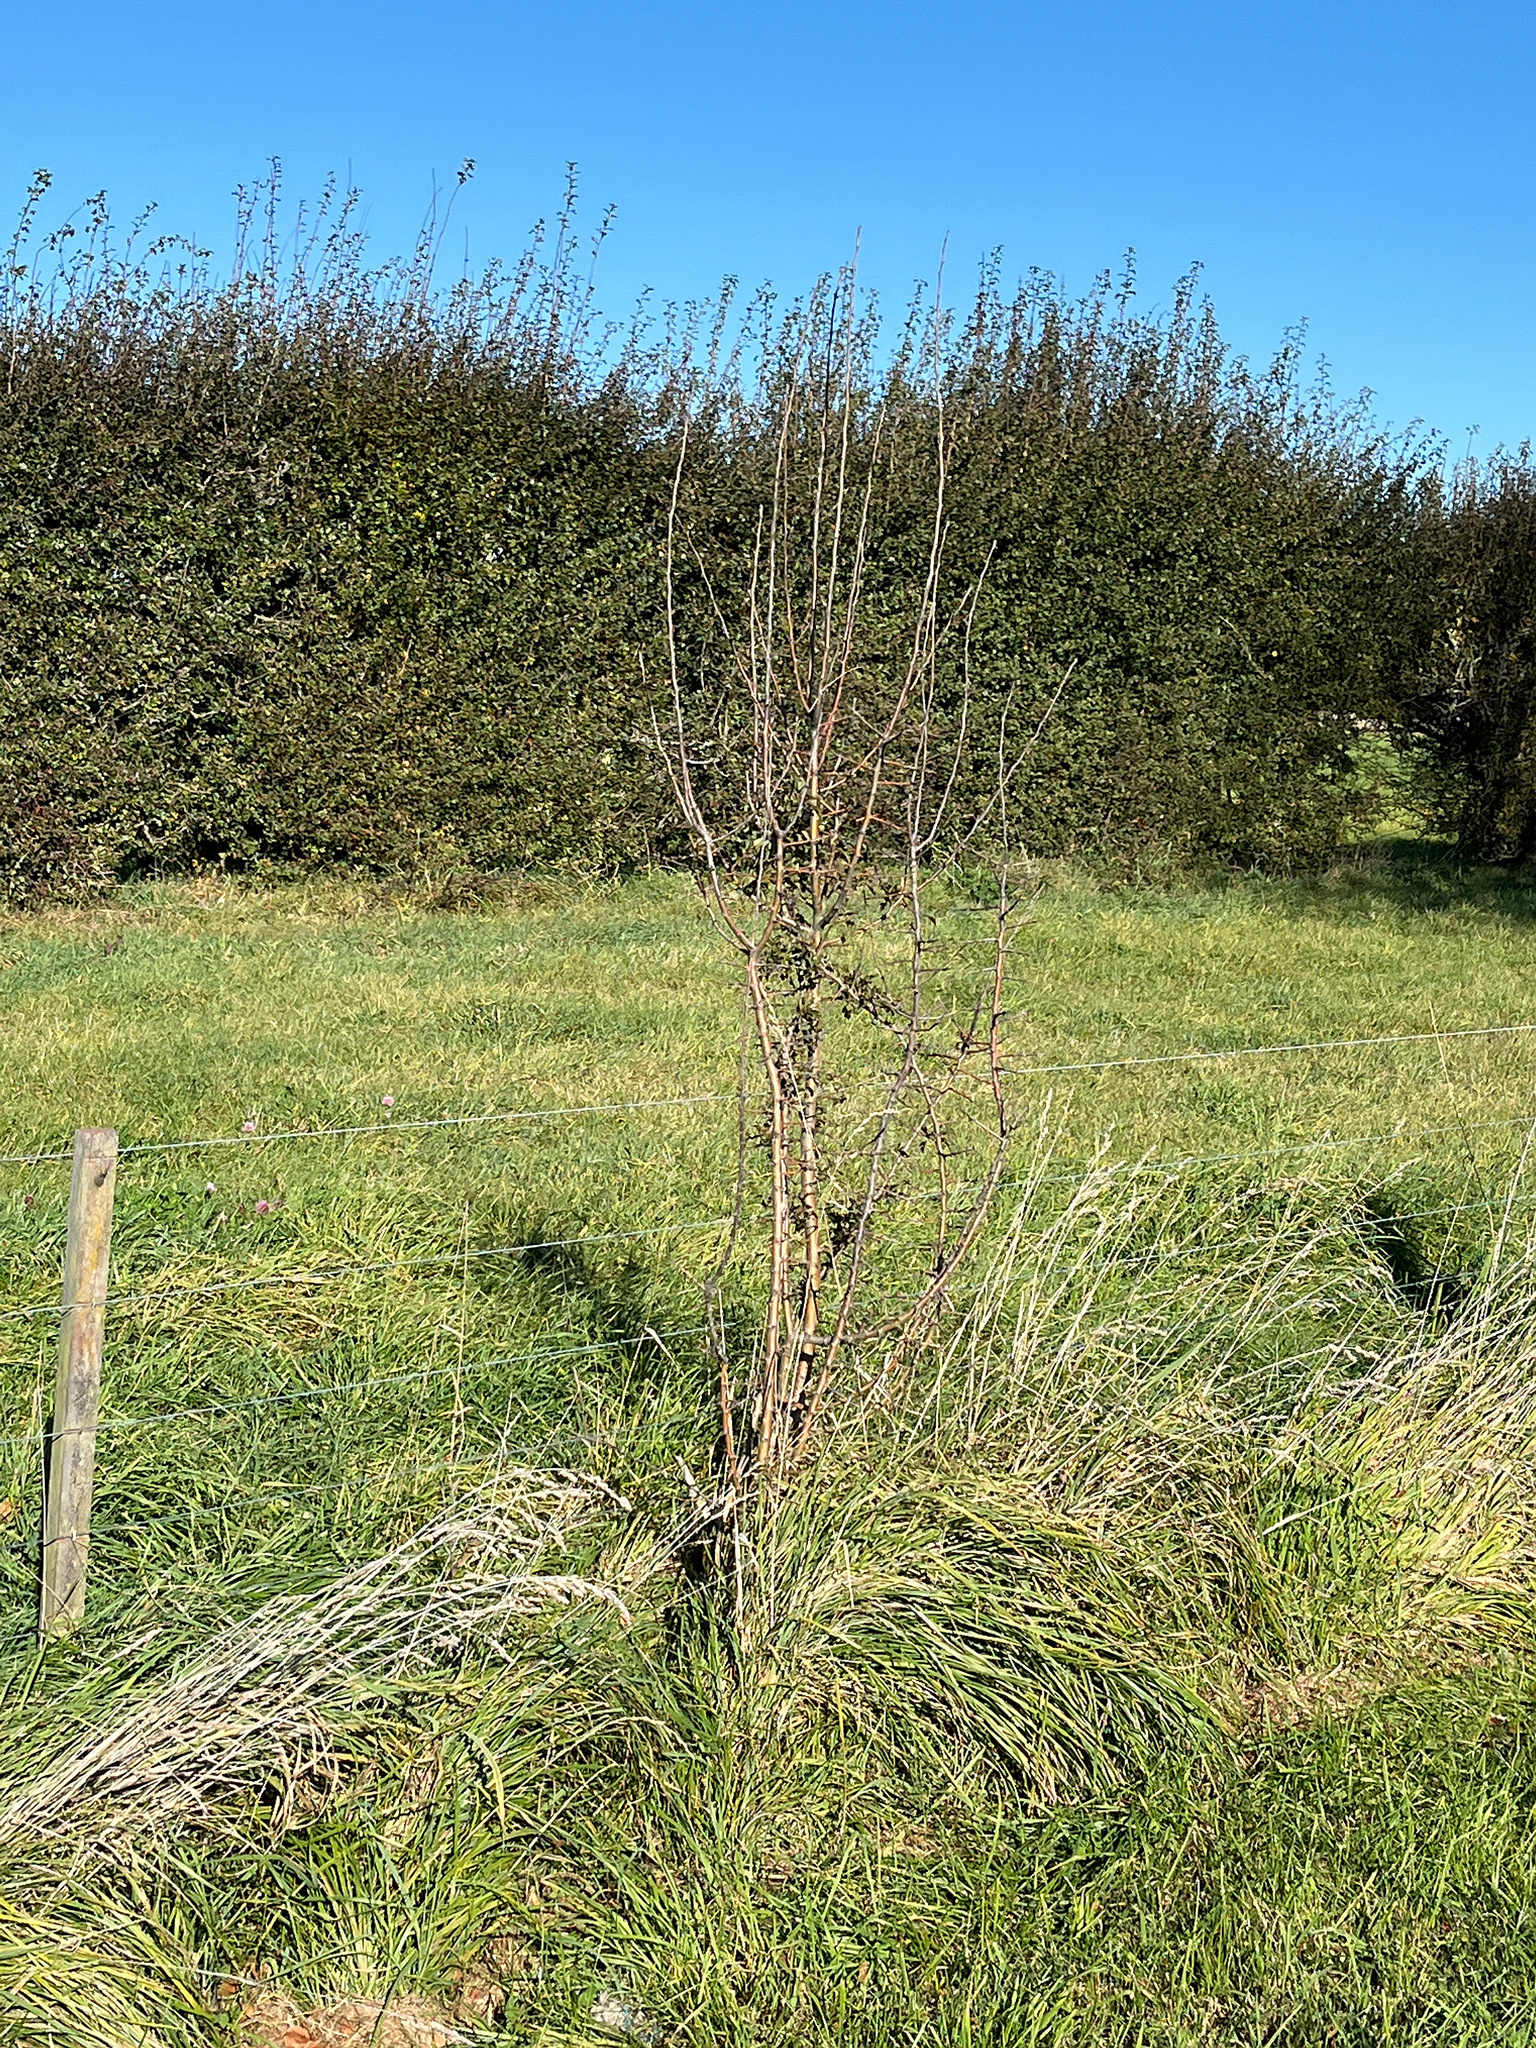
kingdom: Plantae
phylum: Tracheophyta
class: Magnoliopsida
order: Rosales
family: Rosaceae
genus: Crataegus
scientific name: Crataegus monogyna
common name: Hawthorn
